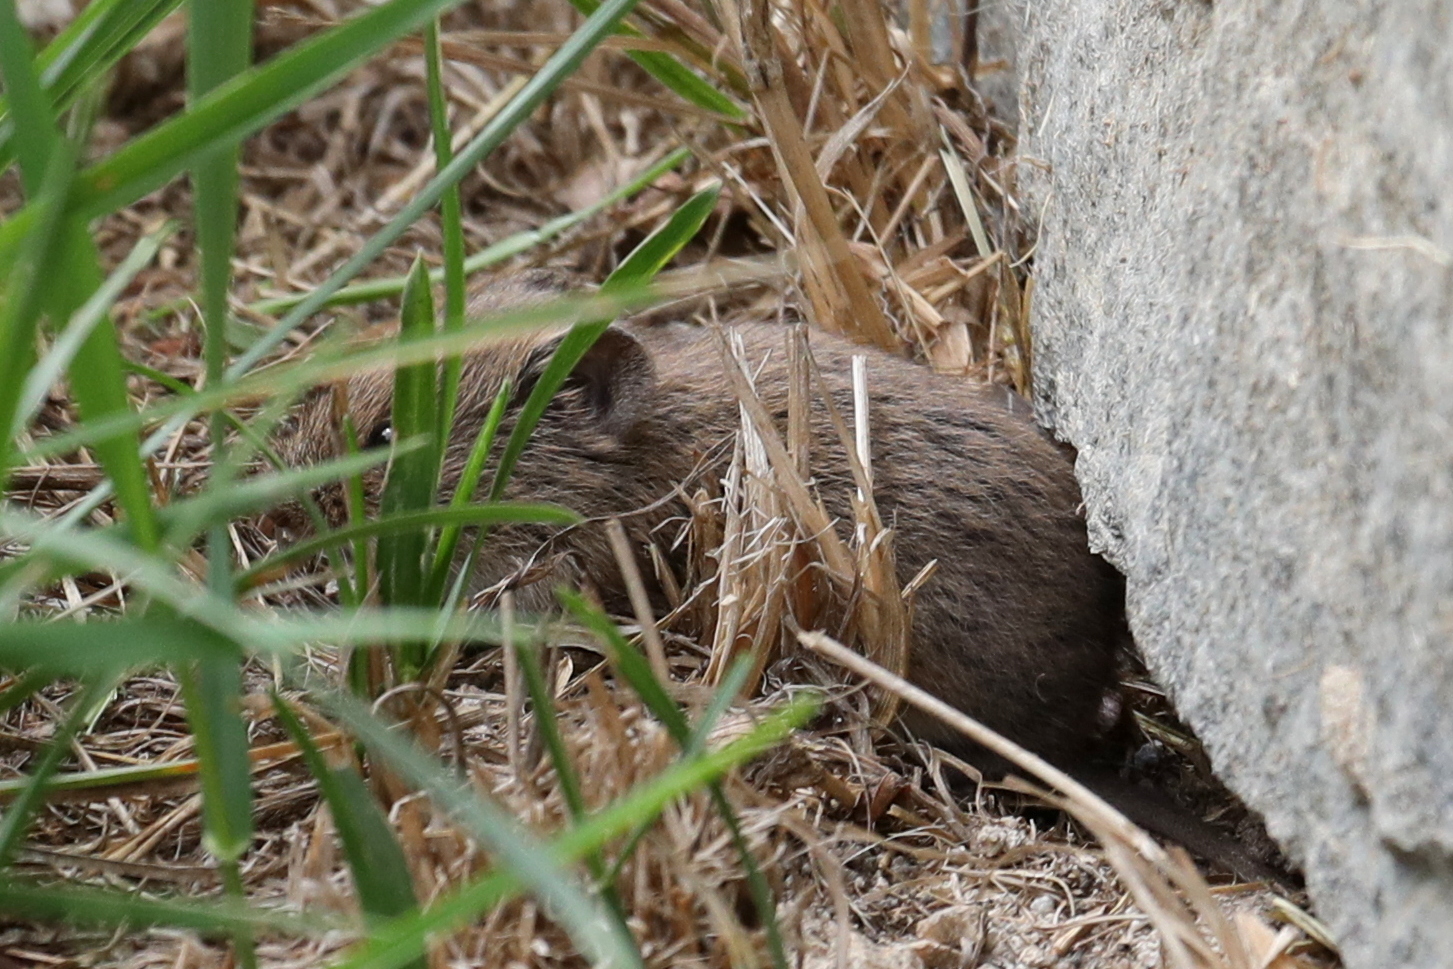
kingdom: Animalia
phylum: Chordata
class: Mammalia
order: Rodentia
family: Cricetidae
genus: Microtus
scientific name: Microtus arvalis
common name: Common vole
